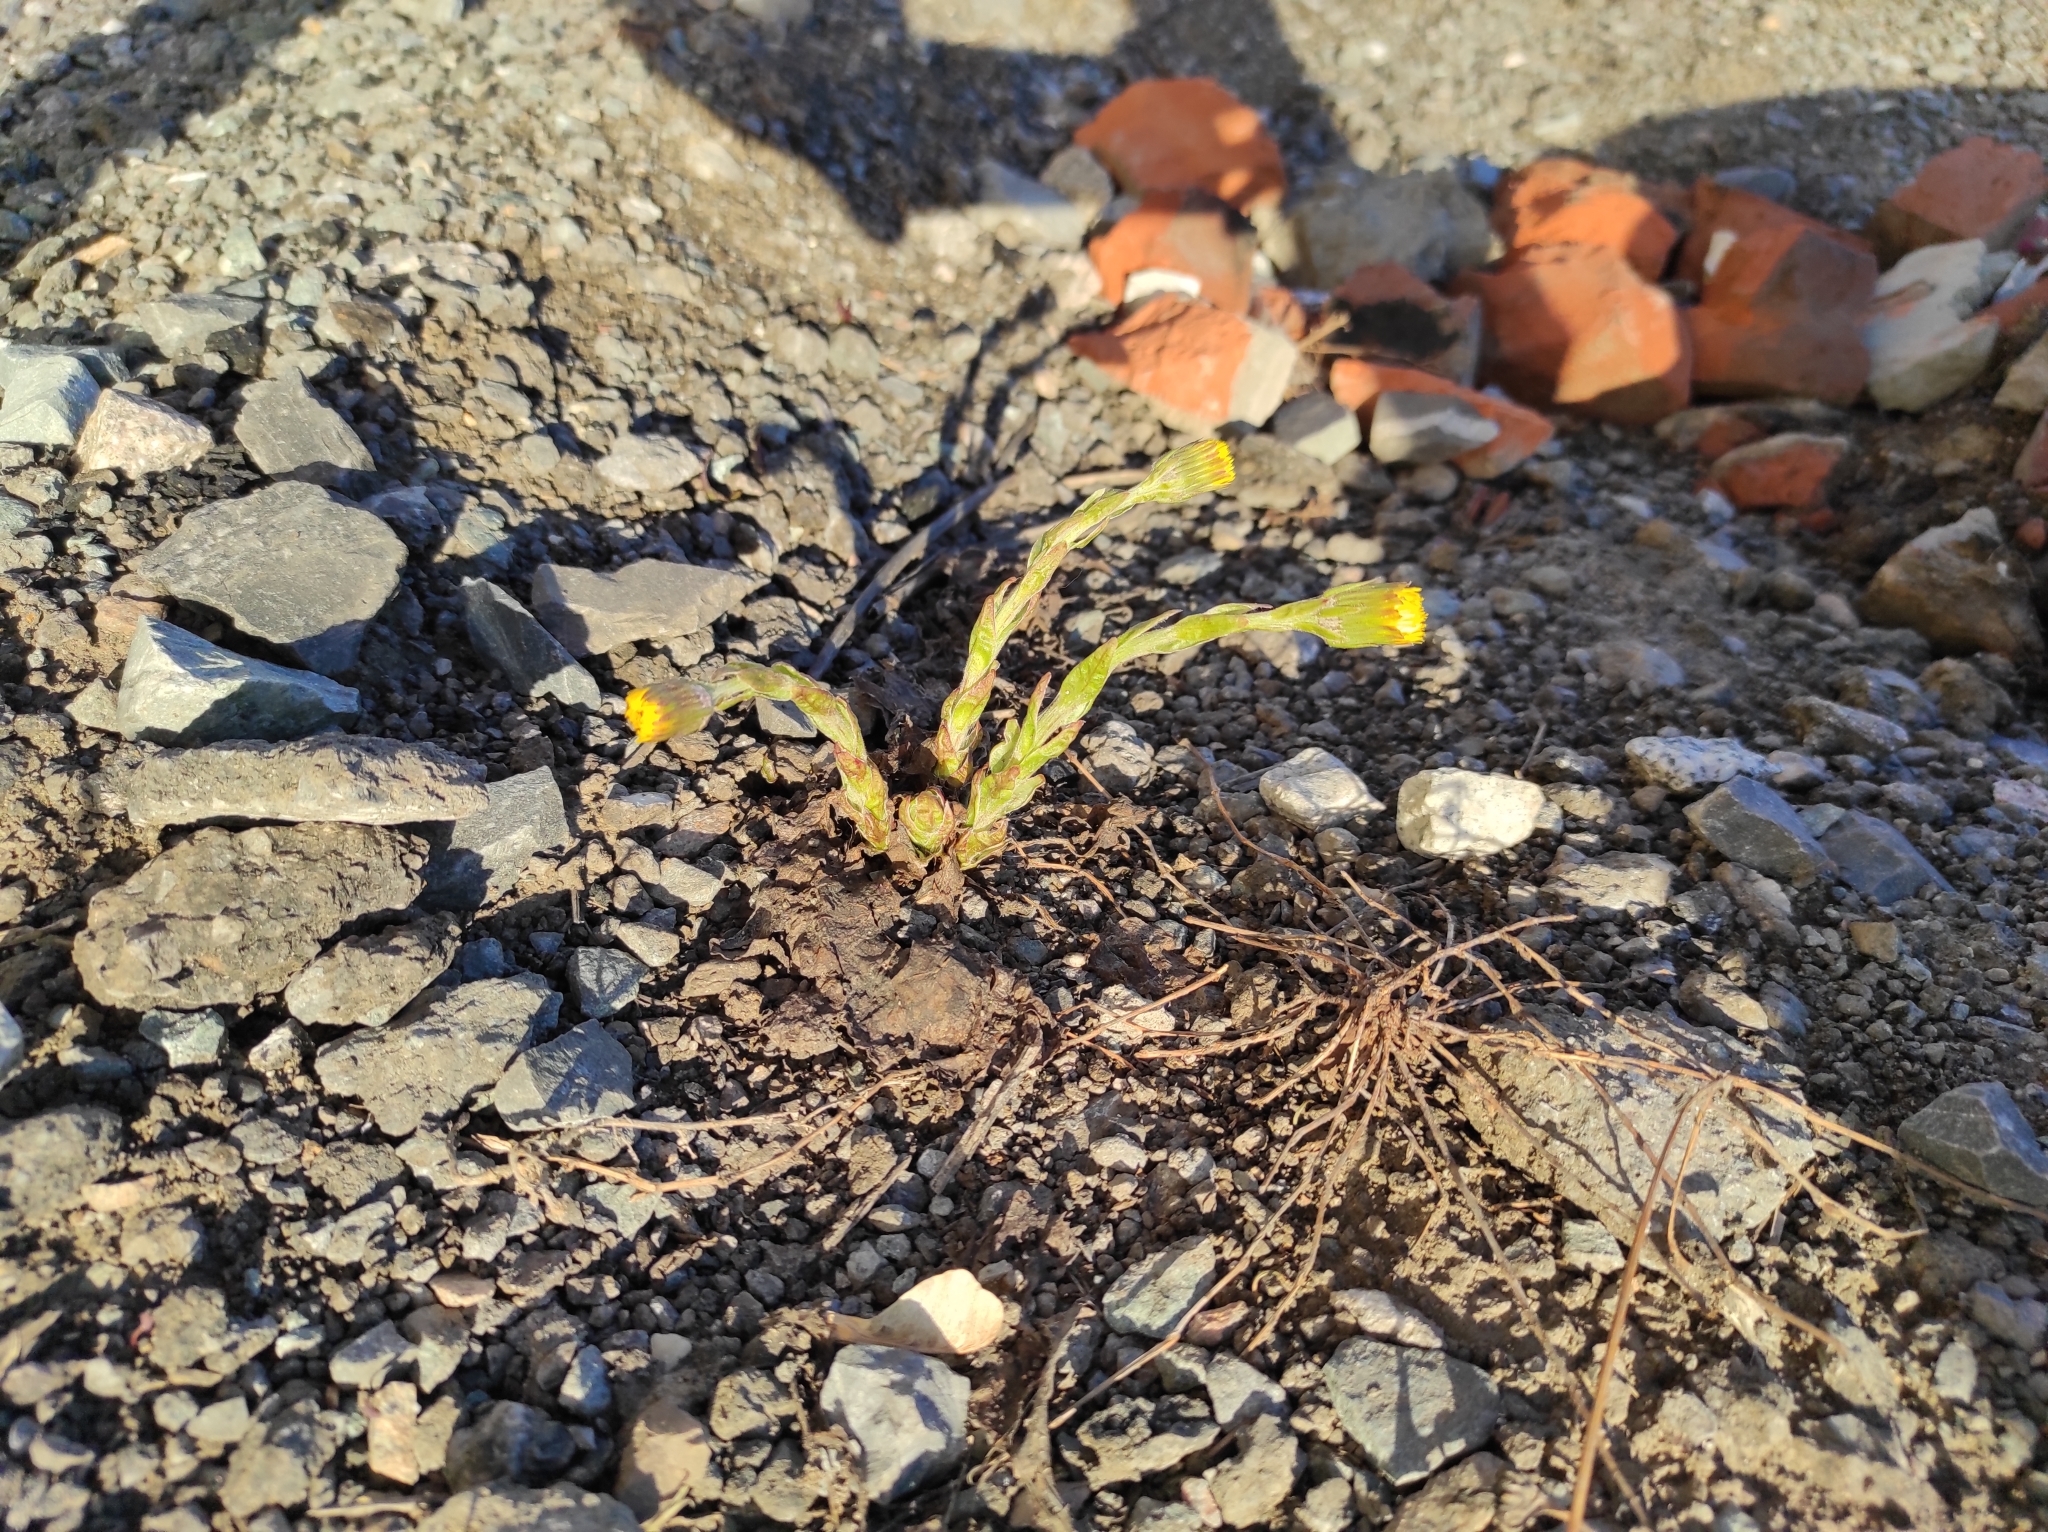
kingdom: Plantae
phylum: Tracheophyta
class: Magnoliopsida
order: Asterales
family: Asteraceae
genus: Tussilago
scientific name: Tussilago farfara
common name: Coltsfoot
